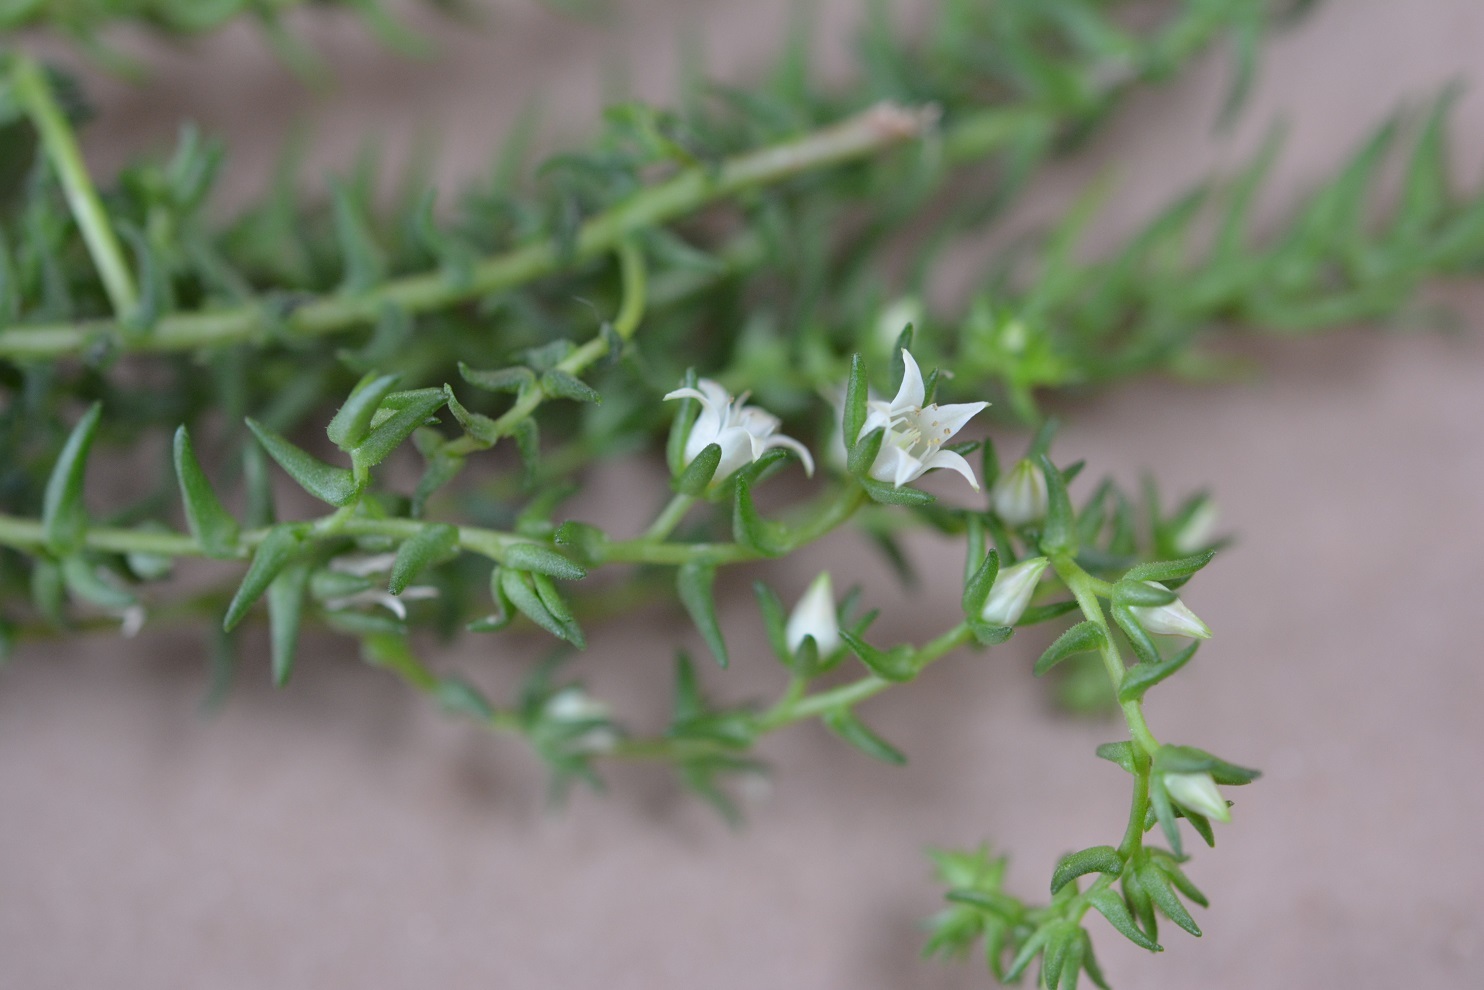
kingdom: Plantae
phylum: Tracheophyta
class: Magnoliopsida
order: Saxifragales
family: Crassulaceae
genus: Villadia
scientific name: Villadia albiflora
